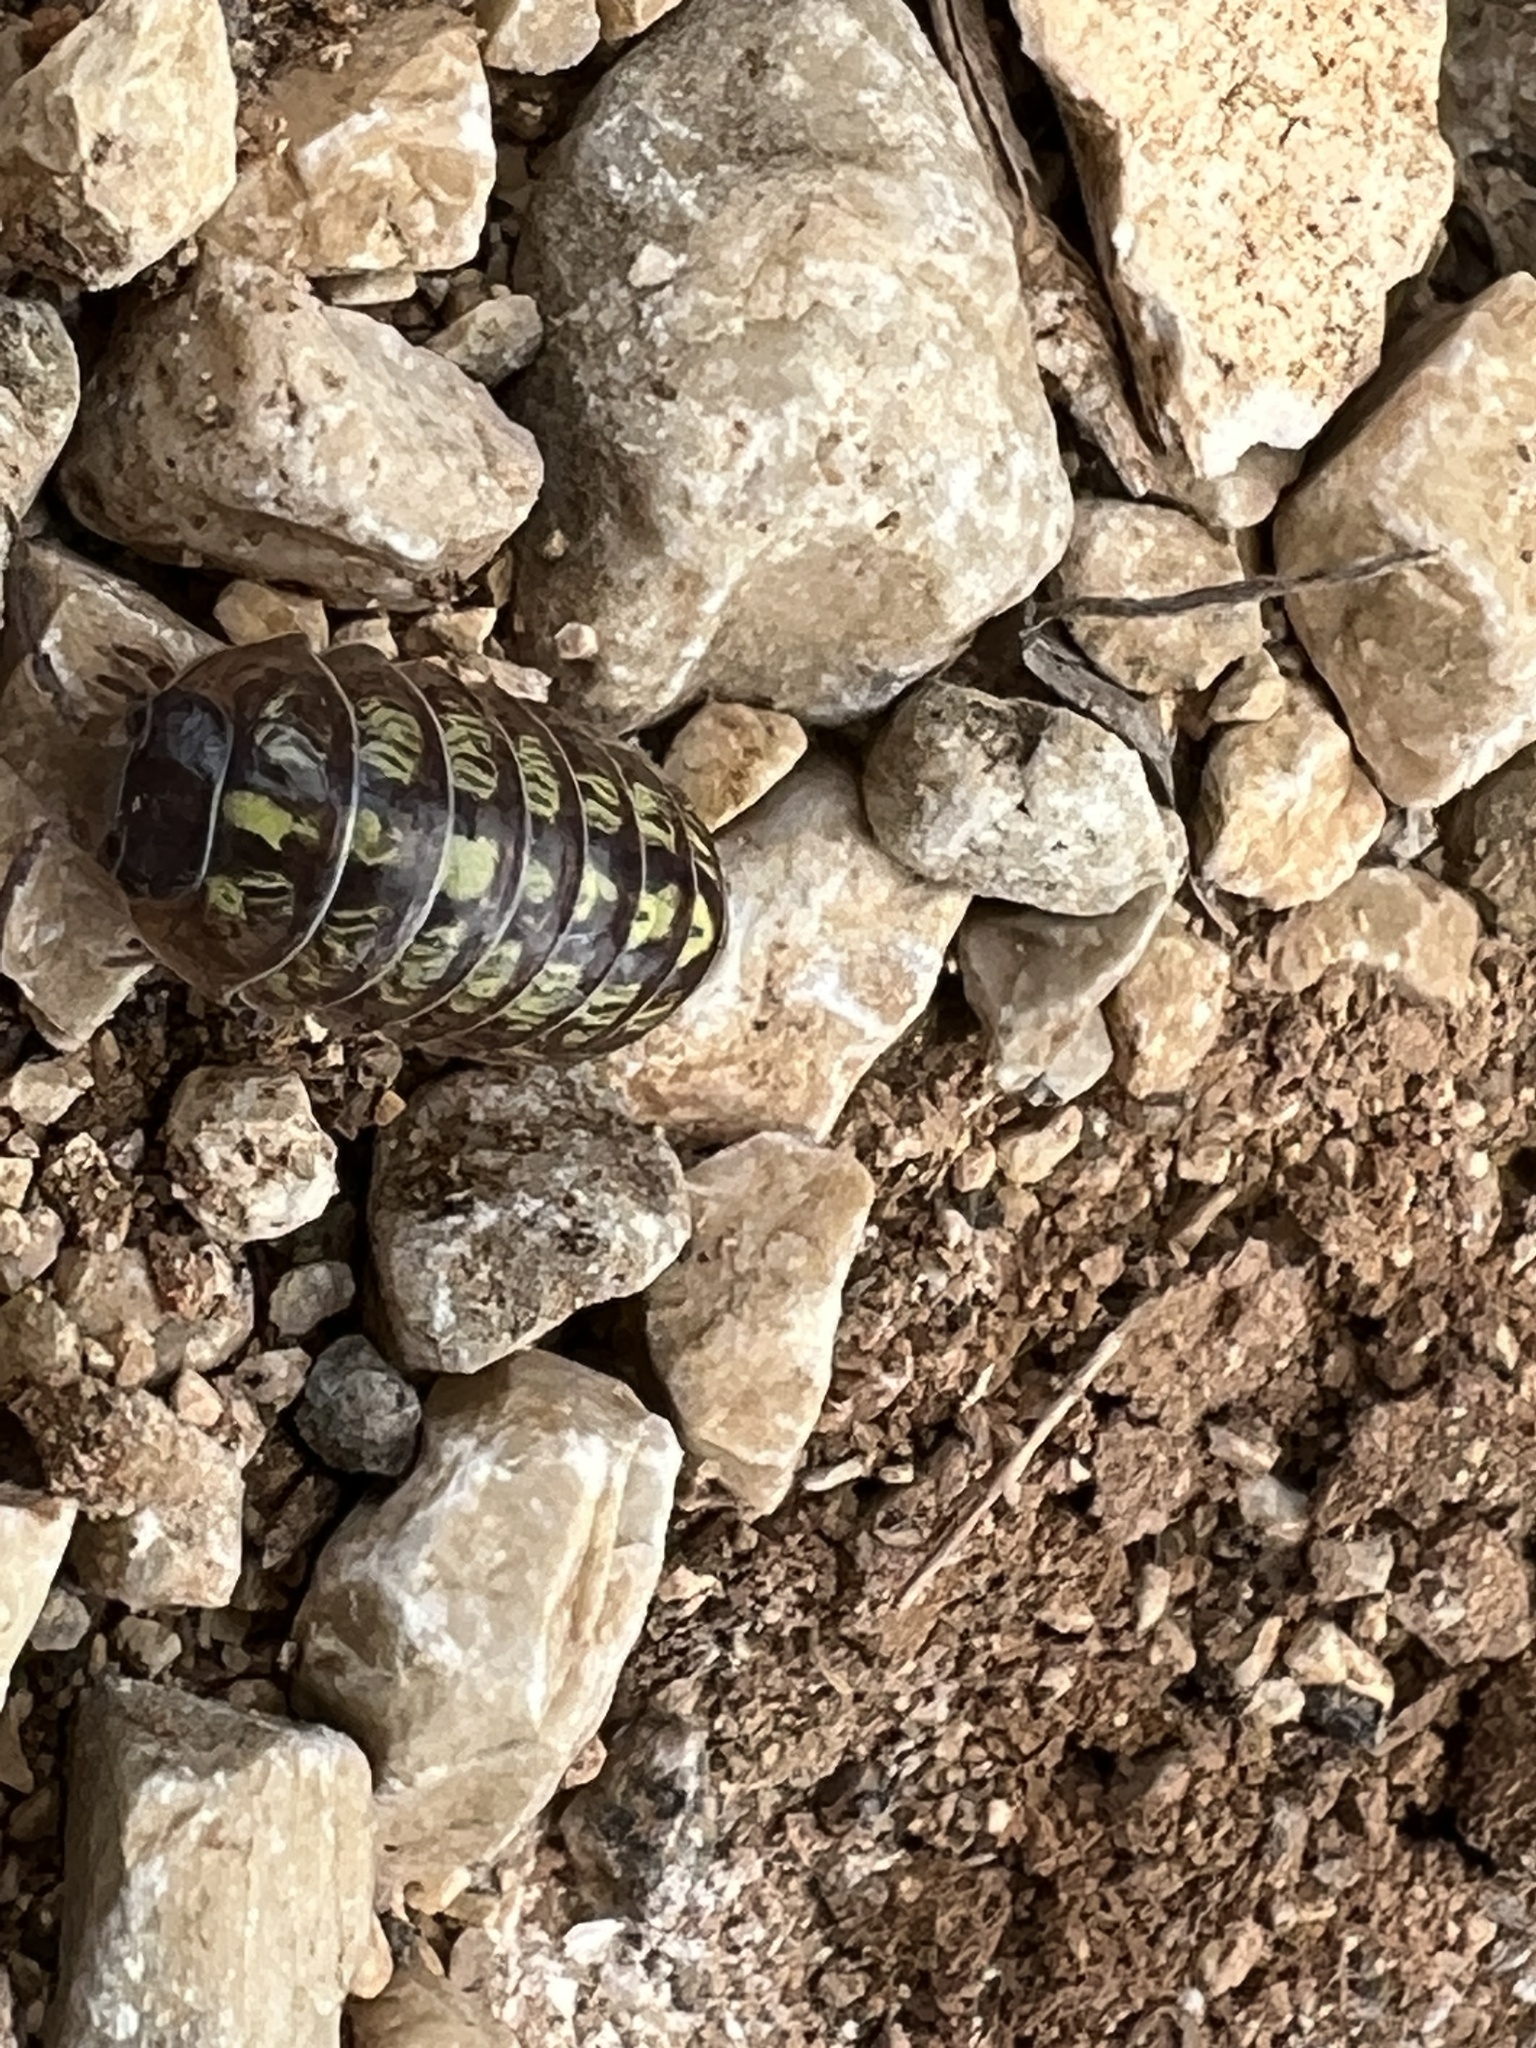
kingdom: Animalia
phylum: Arthropoda
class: Malacostraca
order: Isopoda
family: Armadillidiidae
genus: Armadillidium
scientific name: Armadillidium vulgare
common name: Common pill woodlouse
